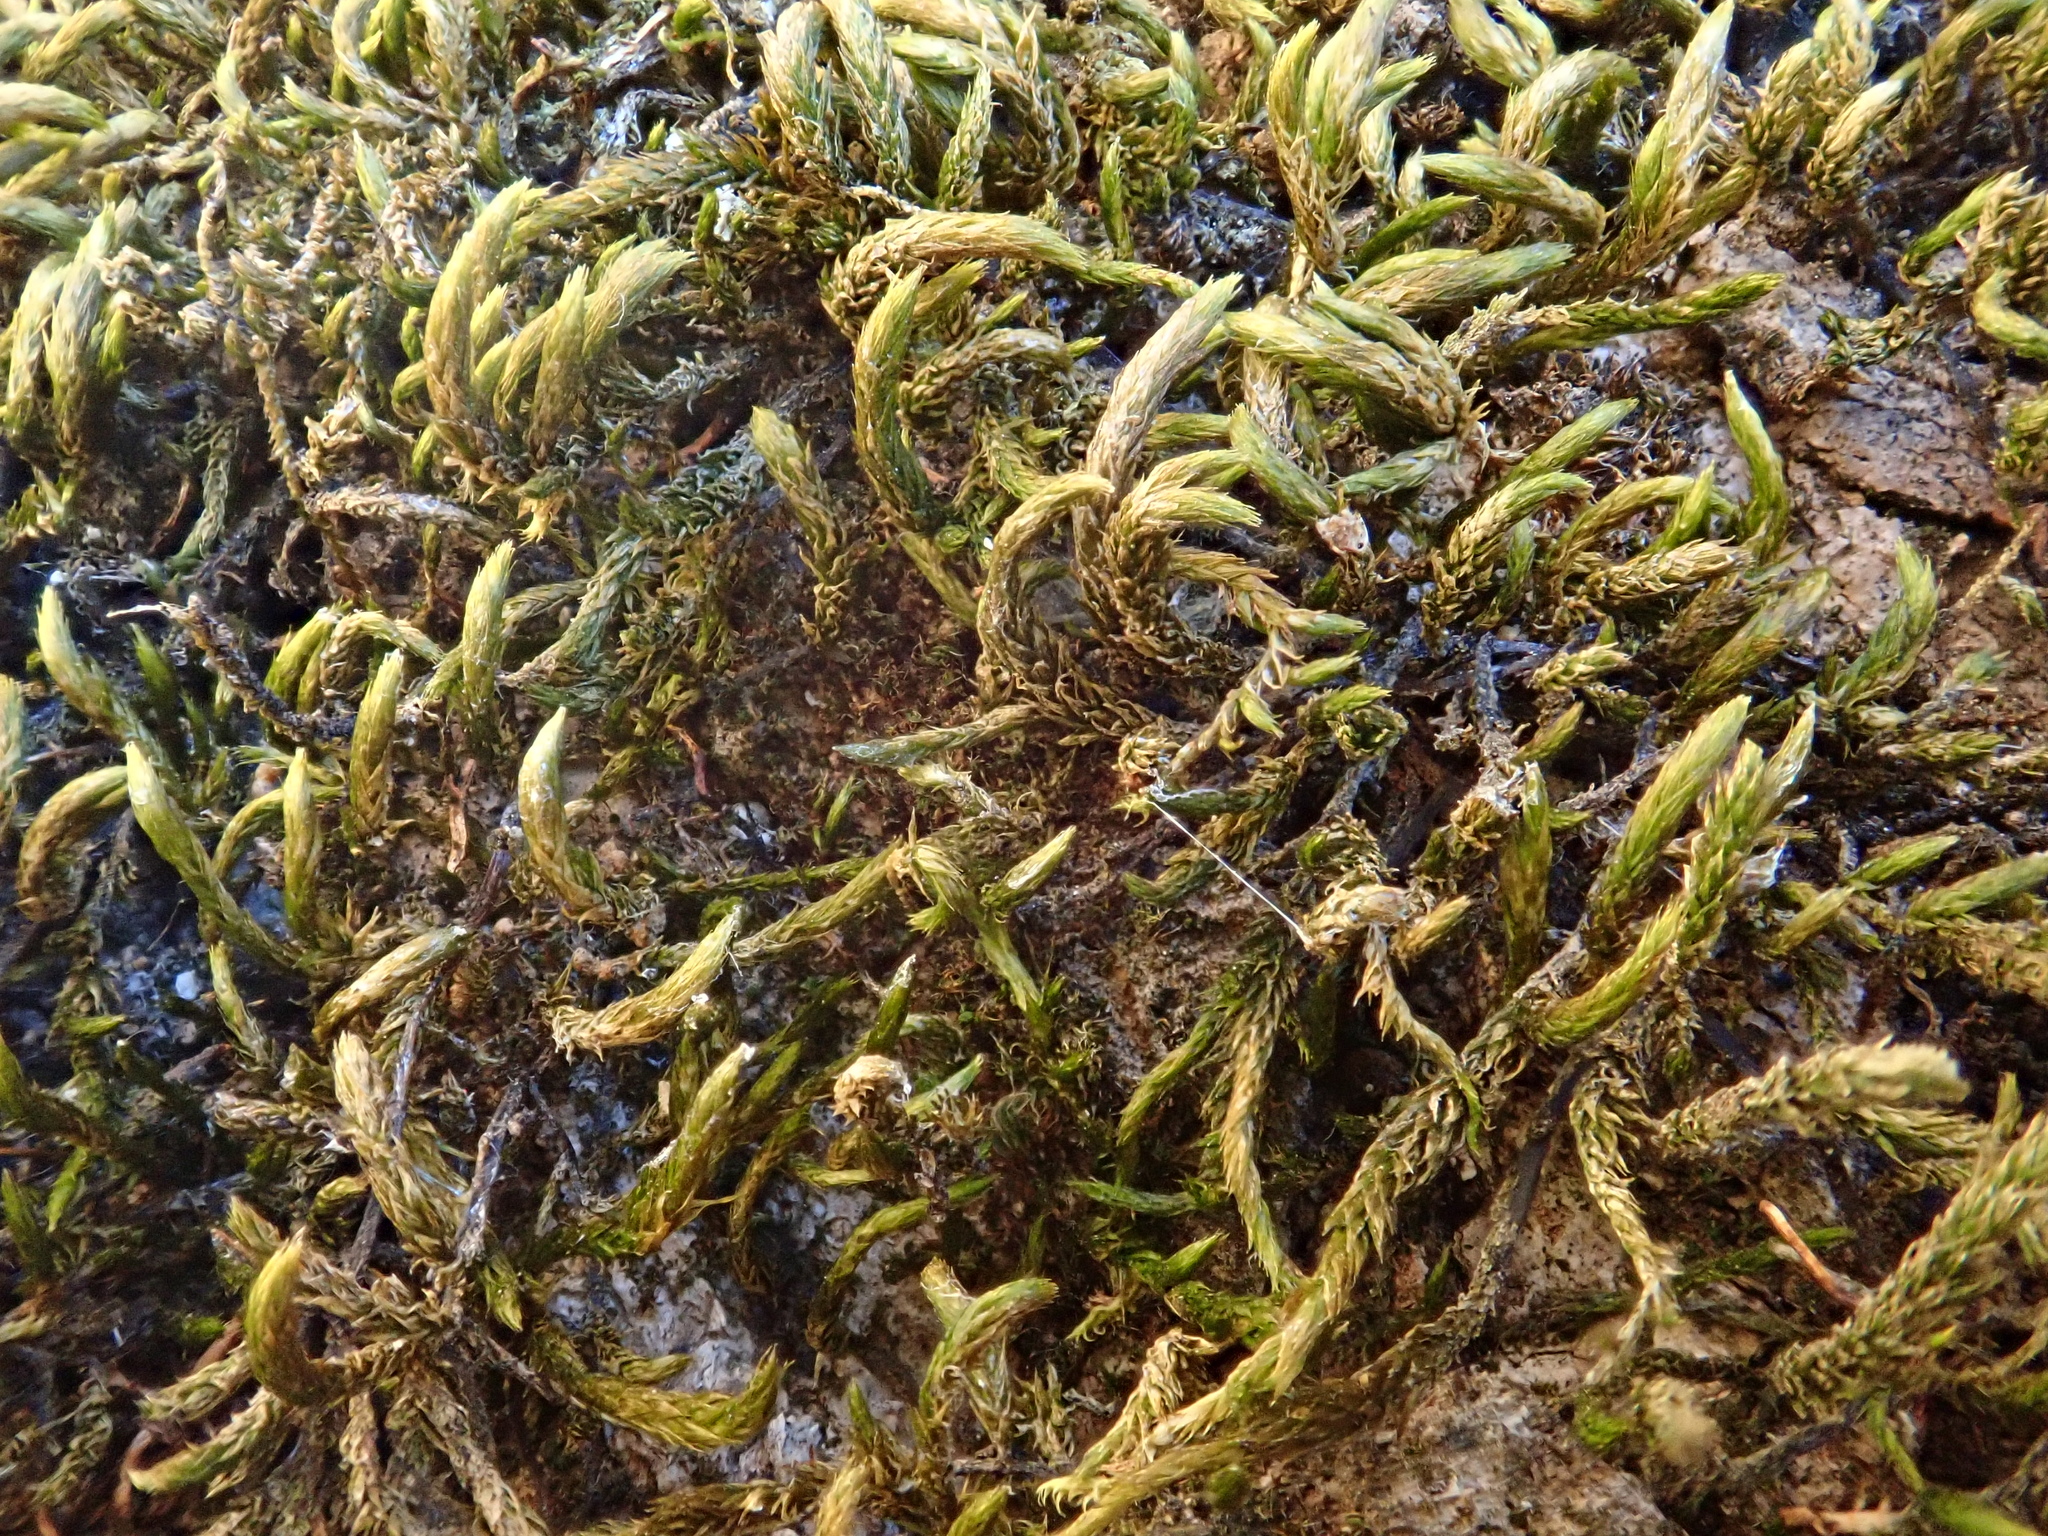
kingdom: Plantae
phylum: Bryophyta
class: Bryopsida
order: Hypnales
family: Leucodontaceae
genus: Leucodon
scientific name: Leucodon sciuroides
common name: Squirrel-tail moss
